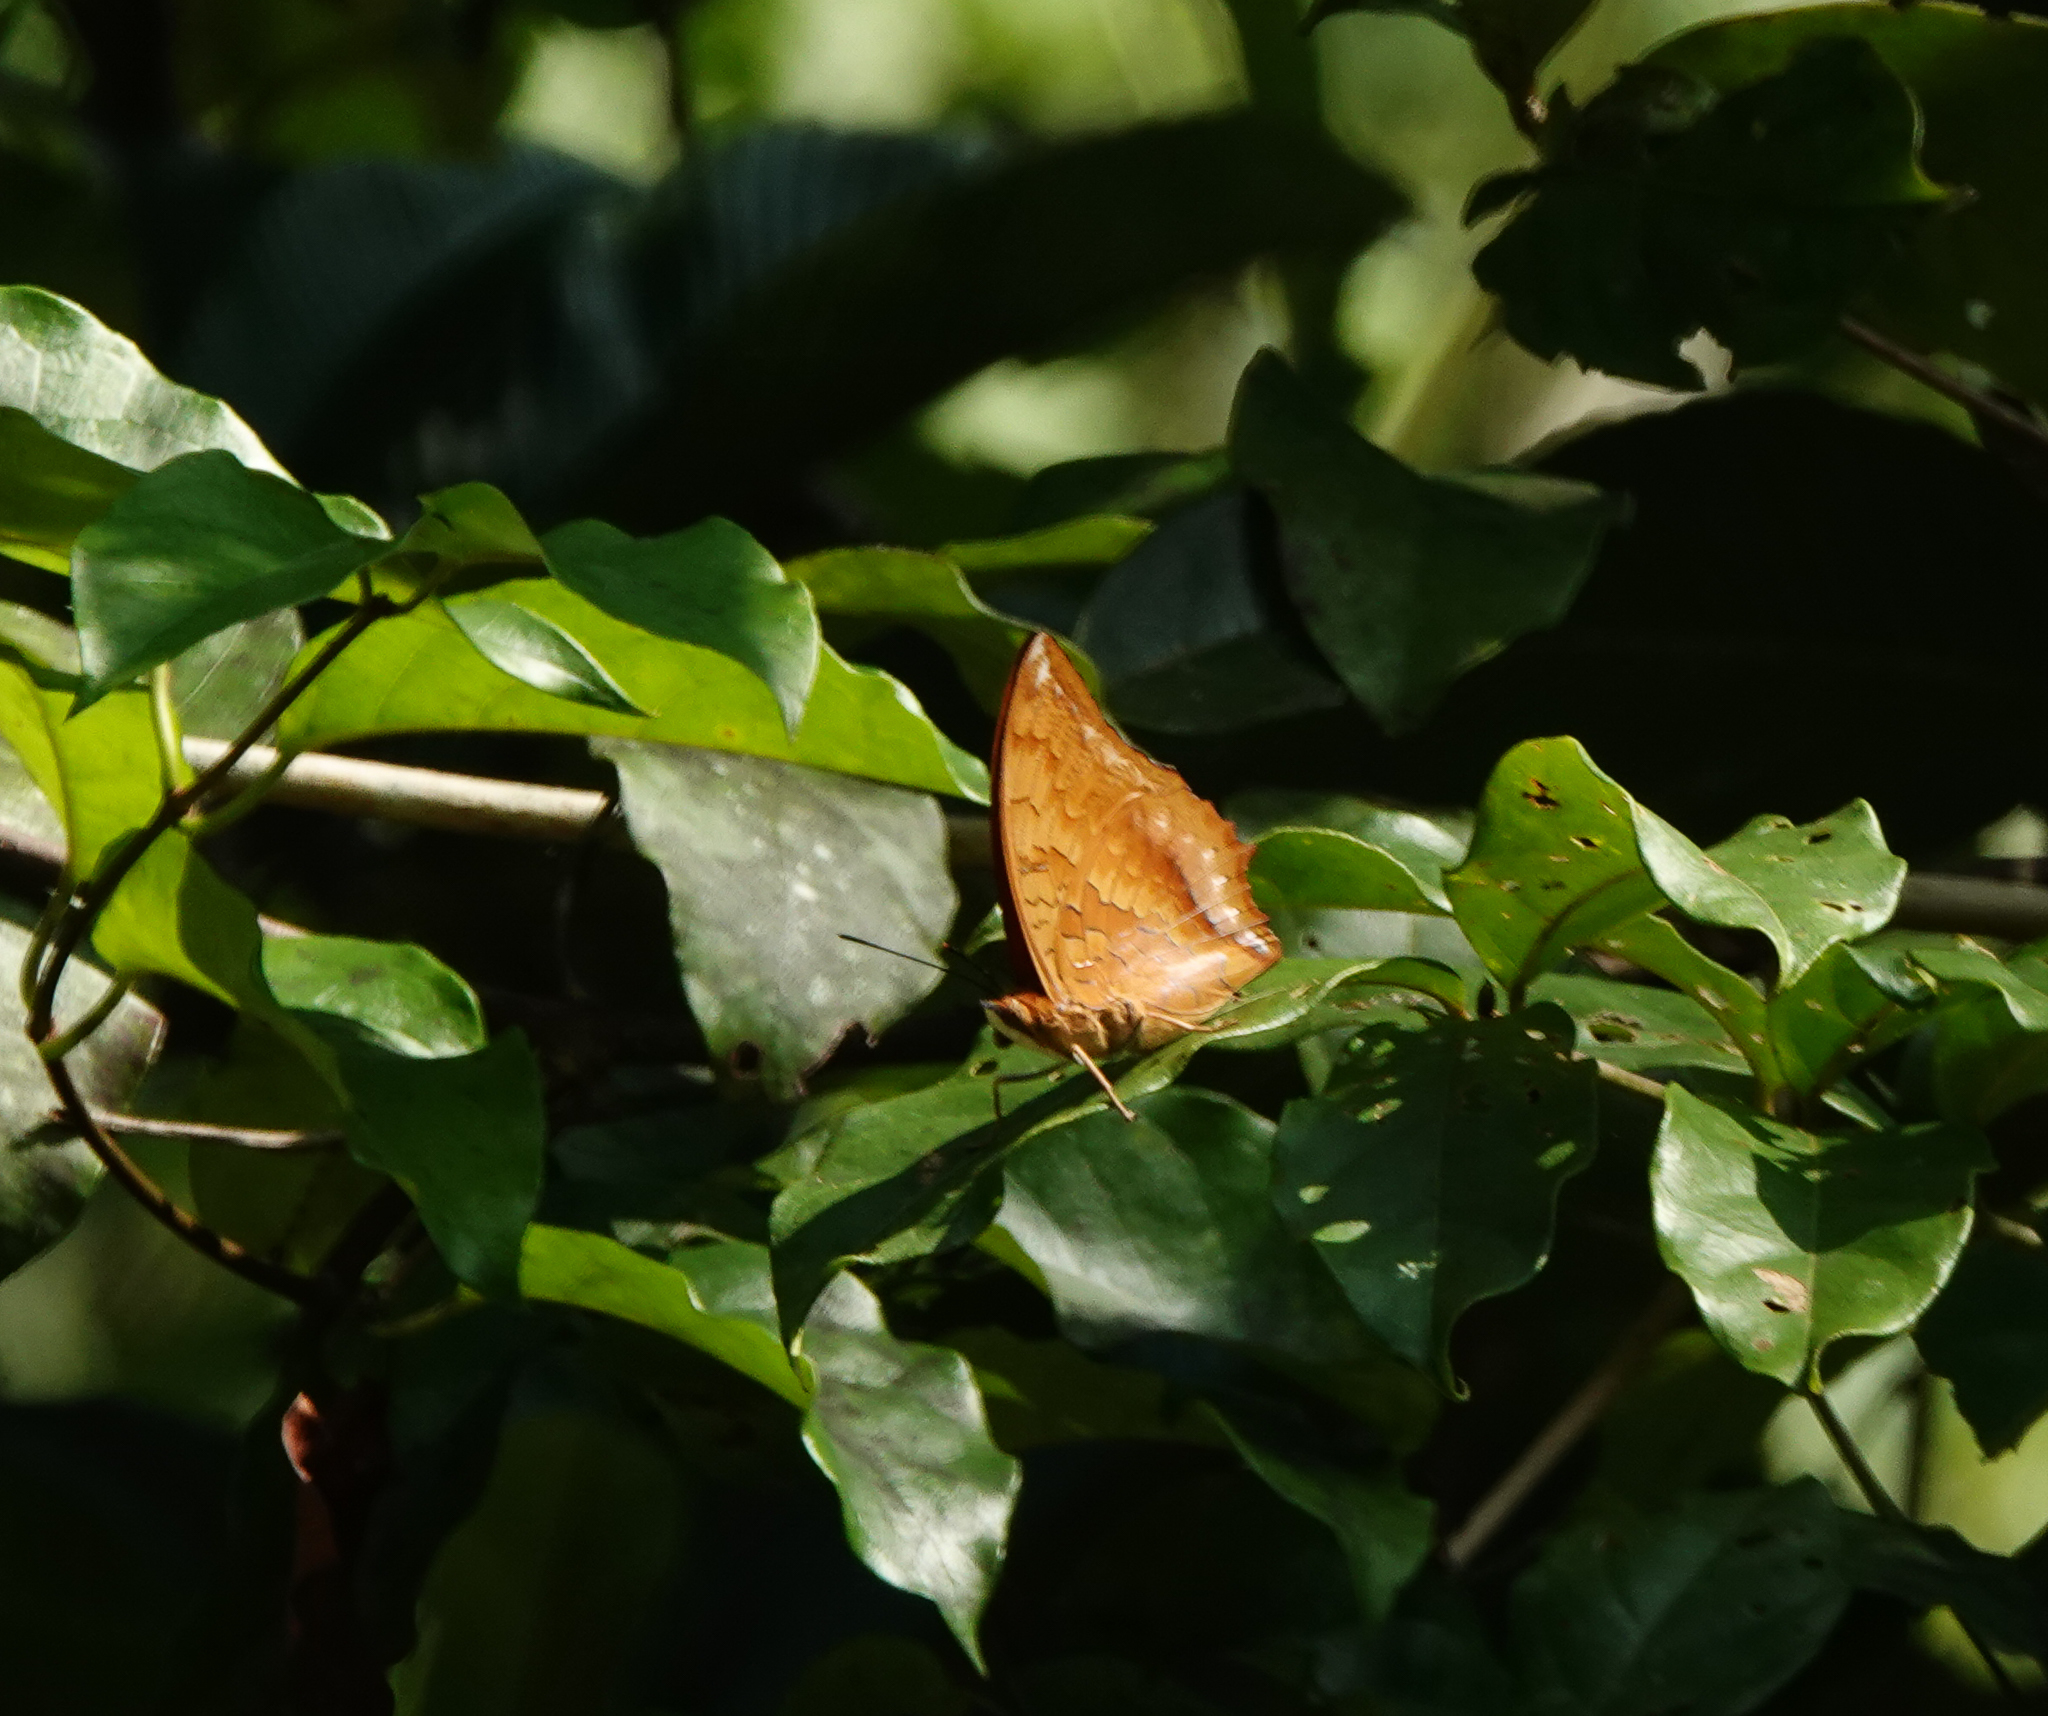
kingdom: Animalia
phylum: Arthropoda
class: Insecta
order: Lepidoptera
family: Nymphalidae
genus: Charaxes
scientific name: Charaxes bernardus
